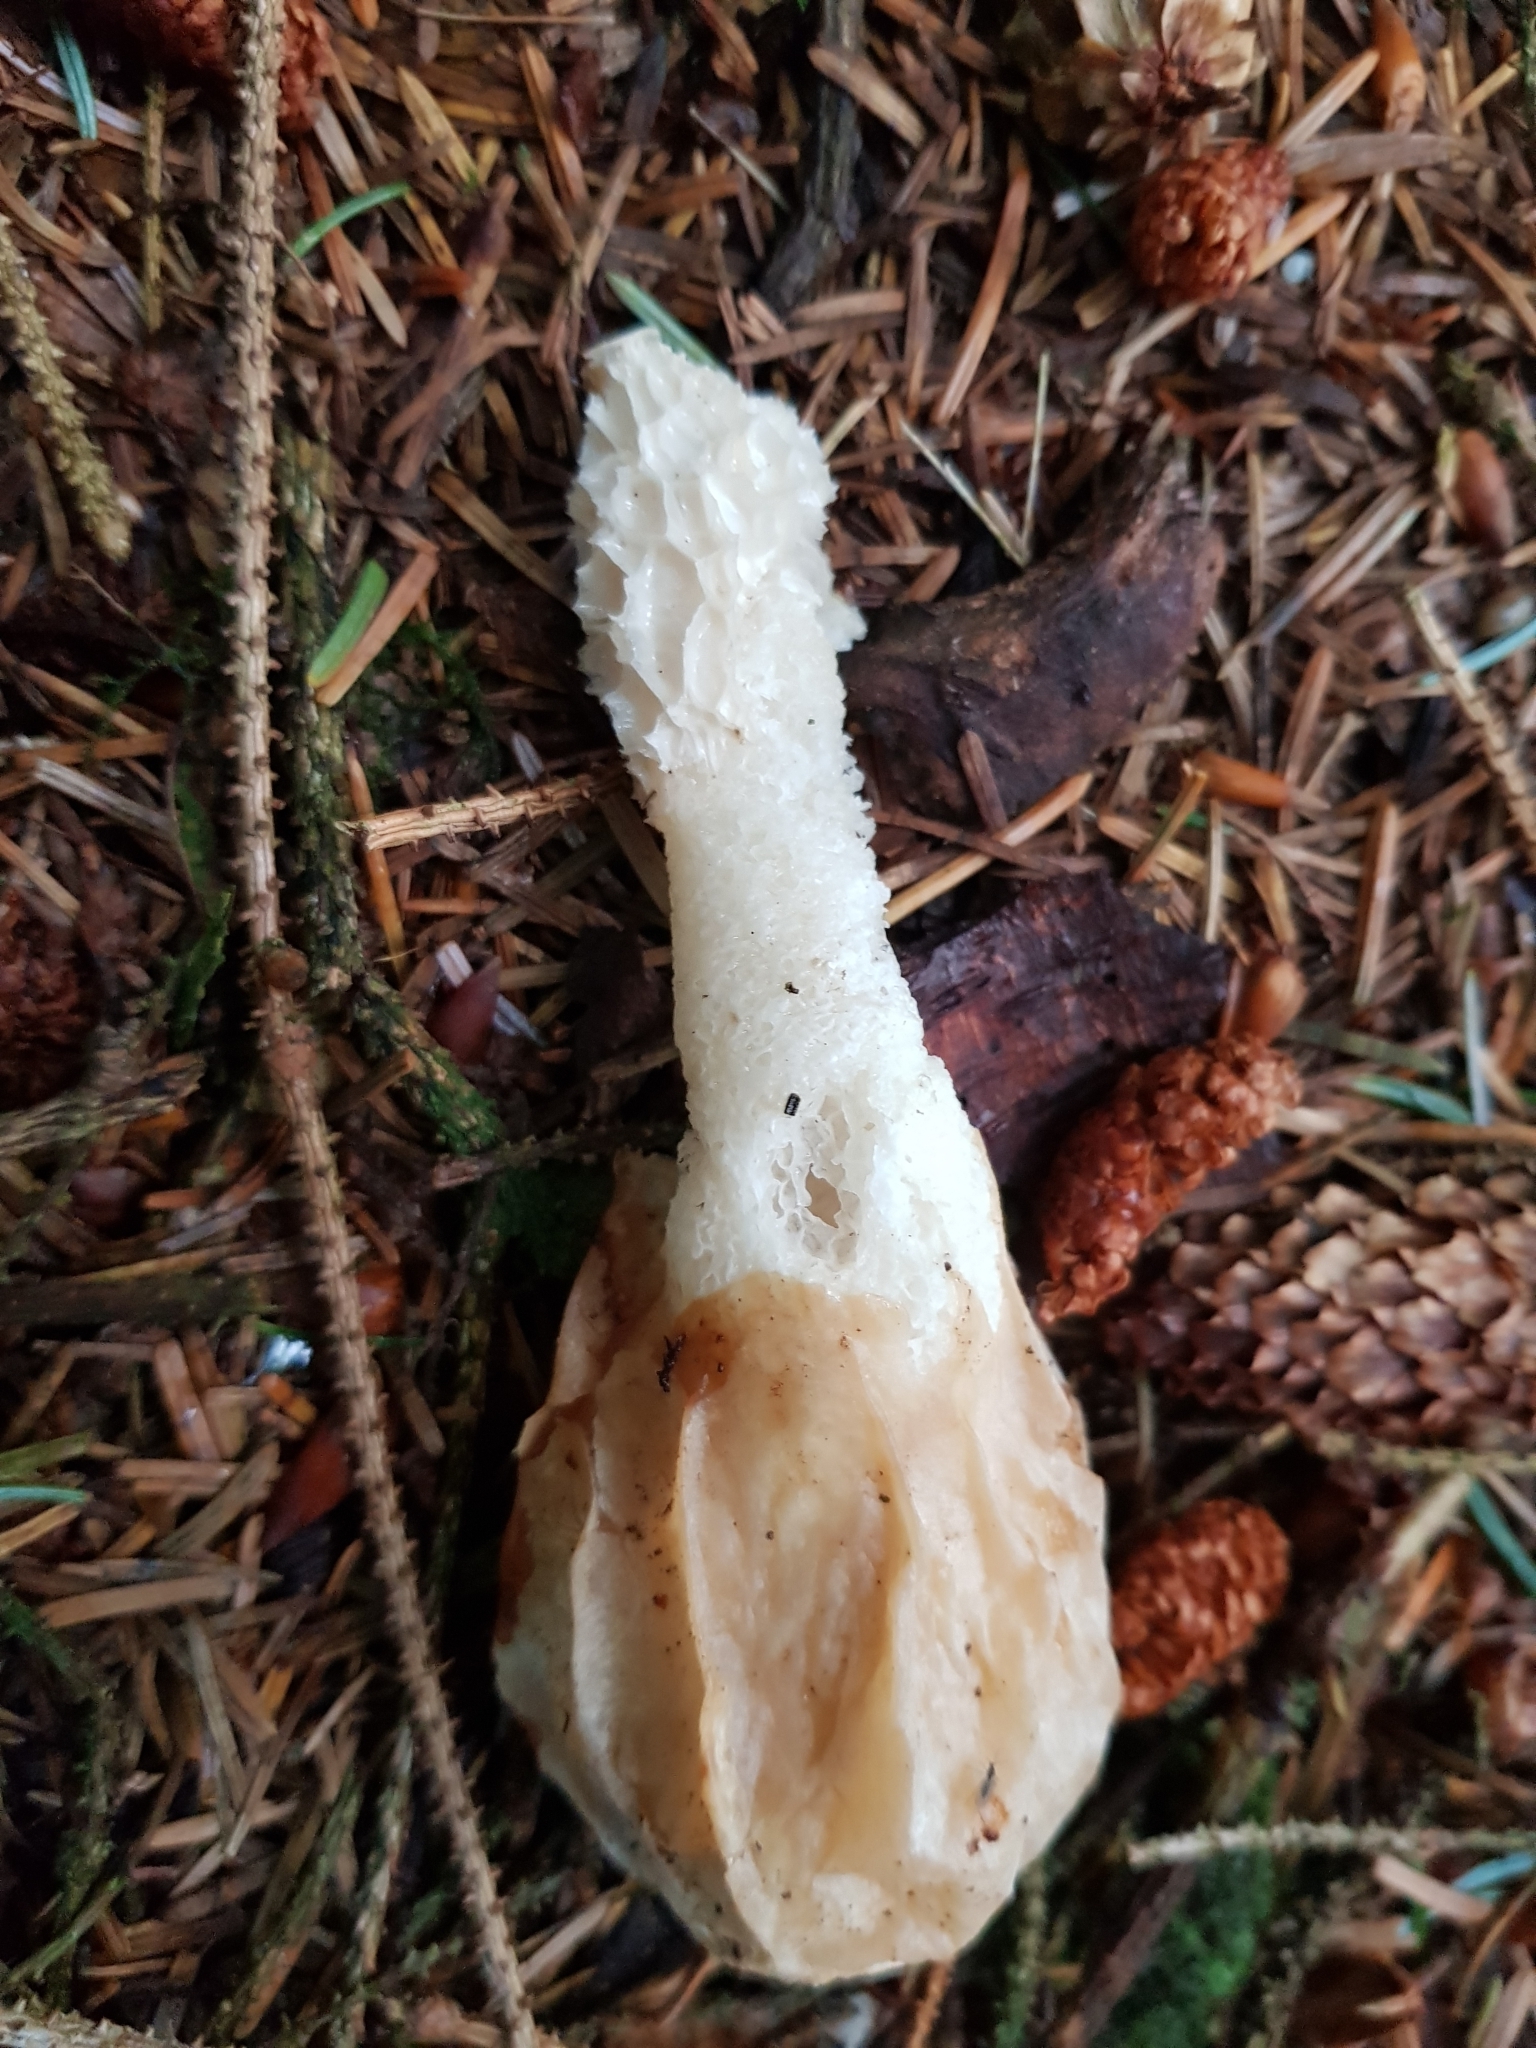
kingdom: Fungi
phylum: Basidiomycota
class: Agaricomycetes
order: Phallales
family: Phallaceae
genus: Phallus
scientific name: Phallus impudicus
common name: Common stinkhorn
